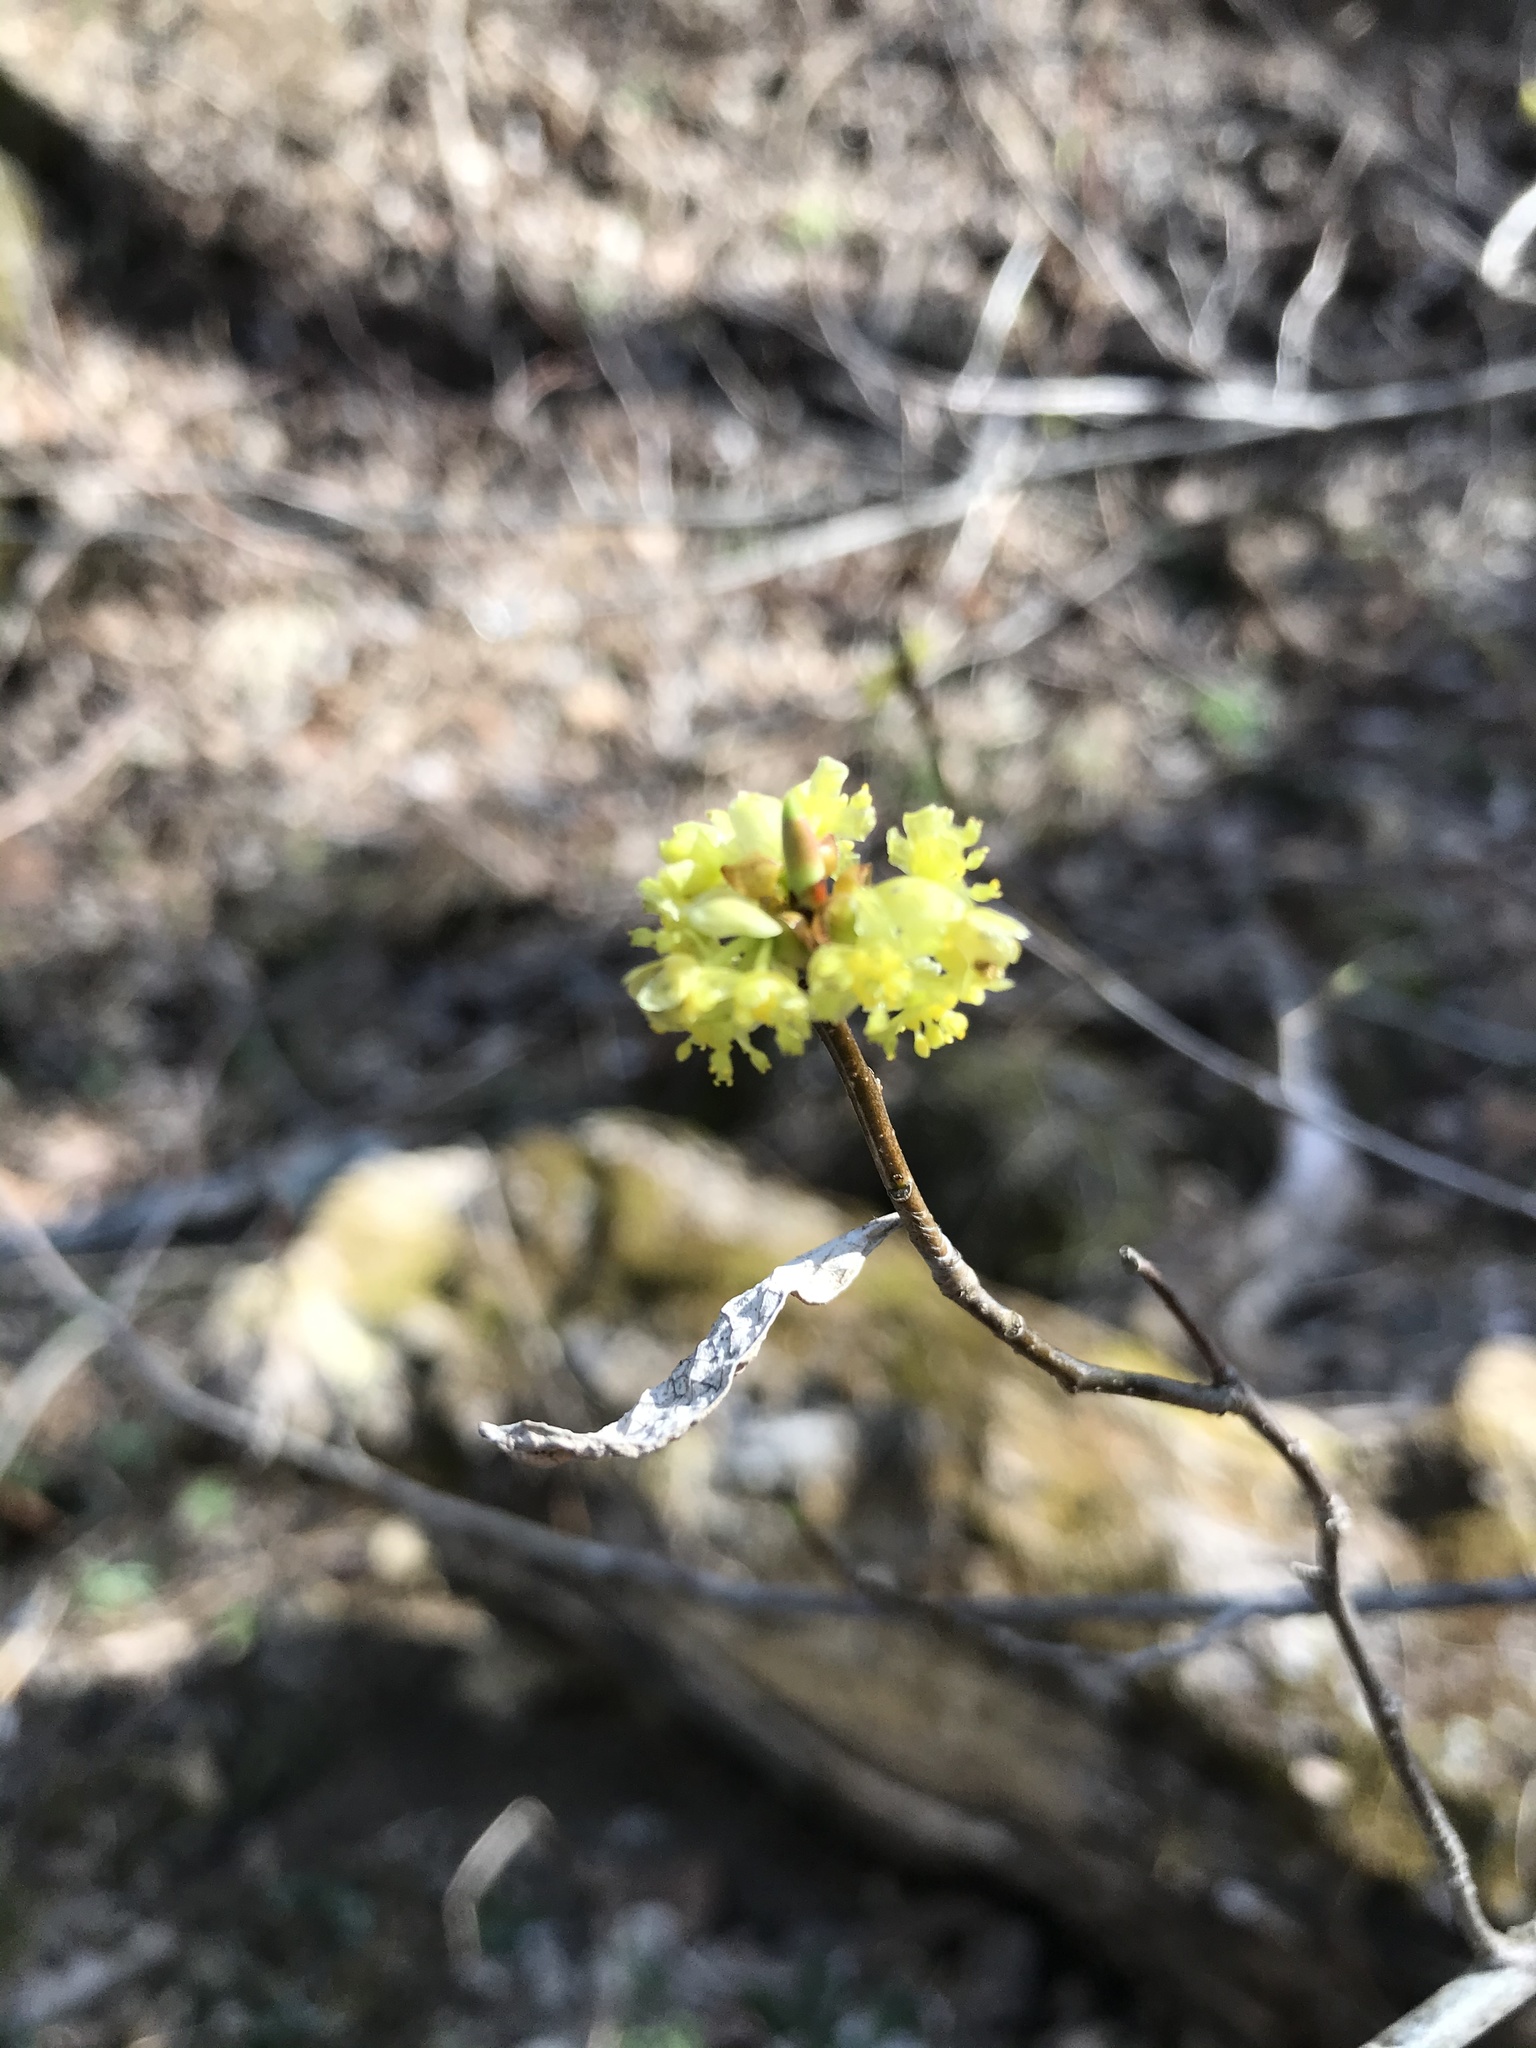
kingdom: Plantae
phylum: Tracheophyta
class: Magnoliopsida
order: Laurales
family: Lauraceae
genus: Lindera
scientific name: Lindera benzoin
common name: Spicebush
